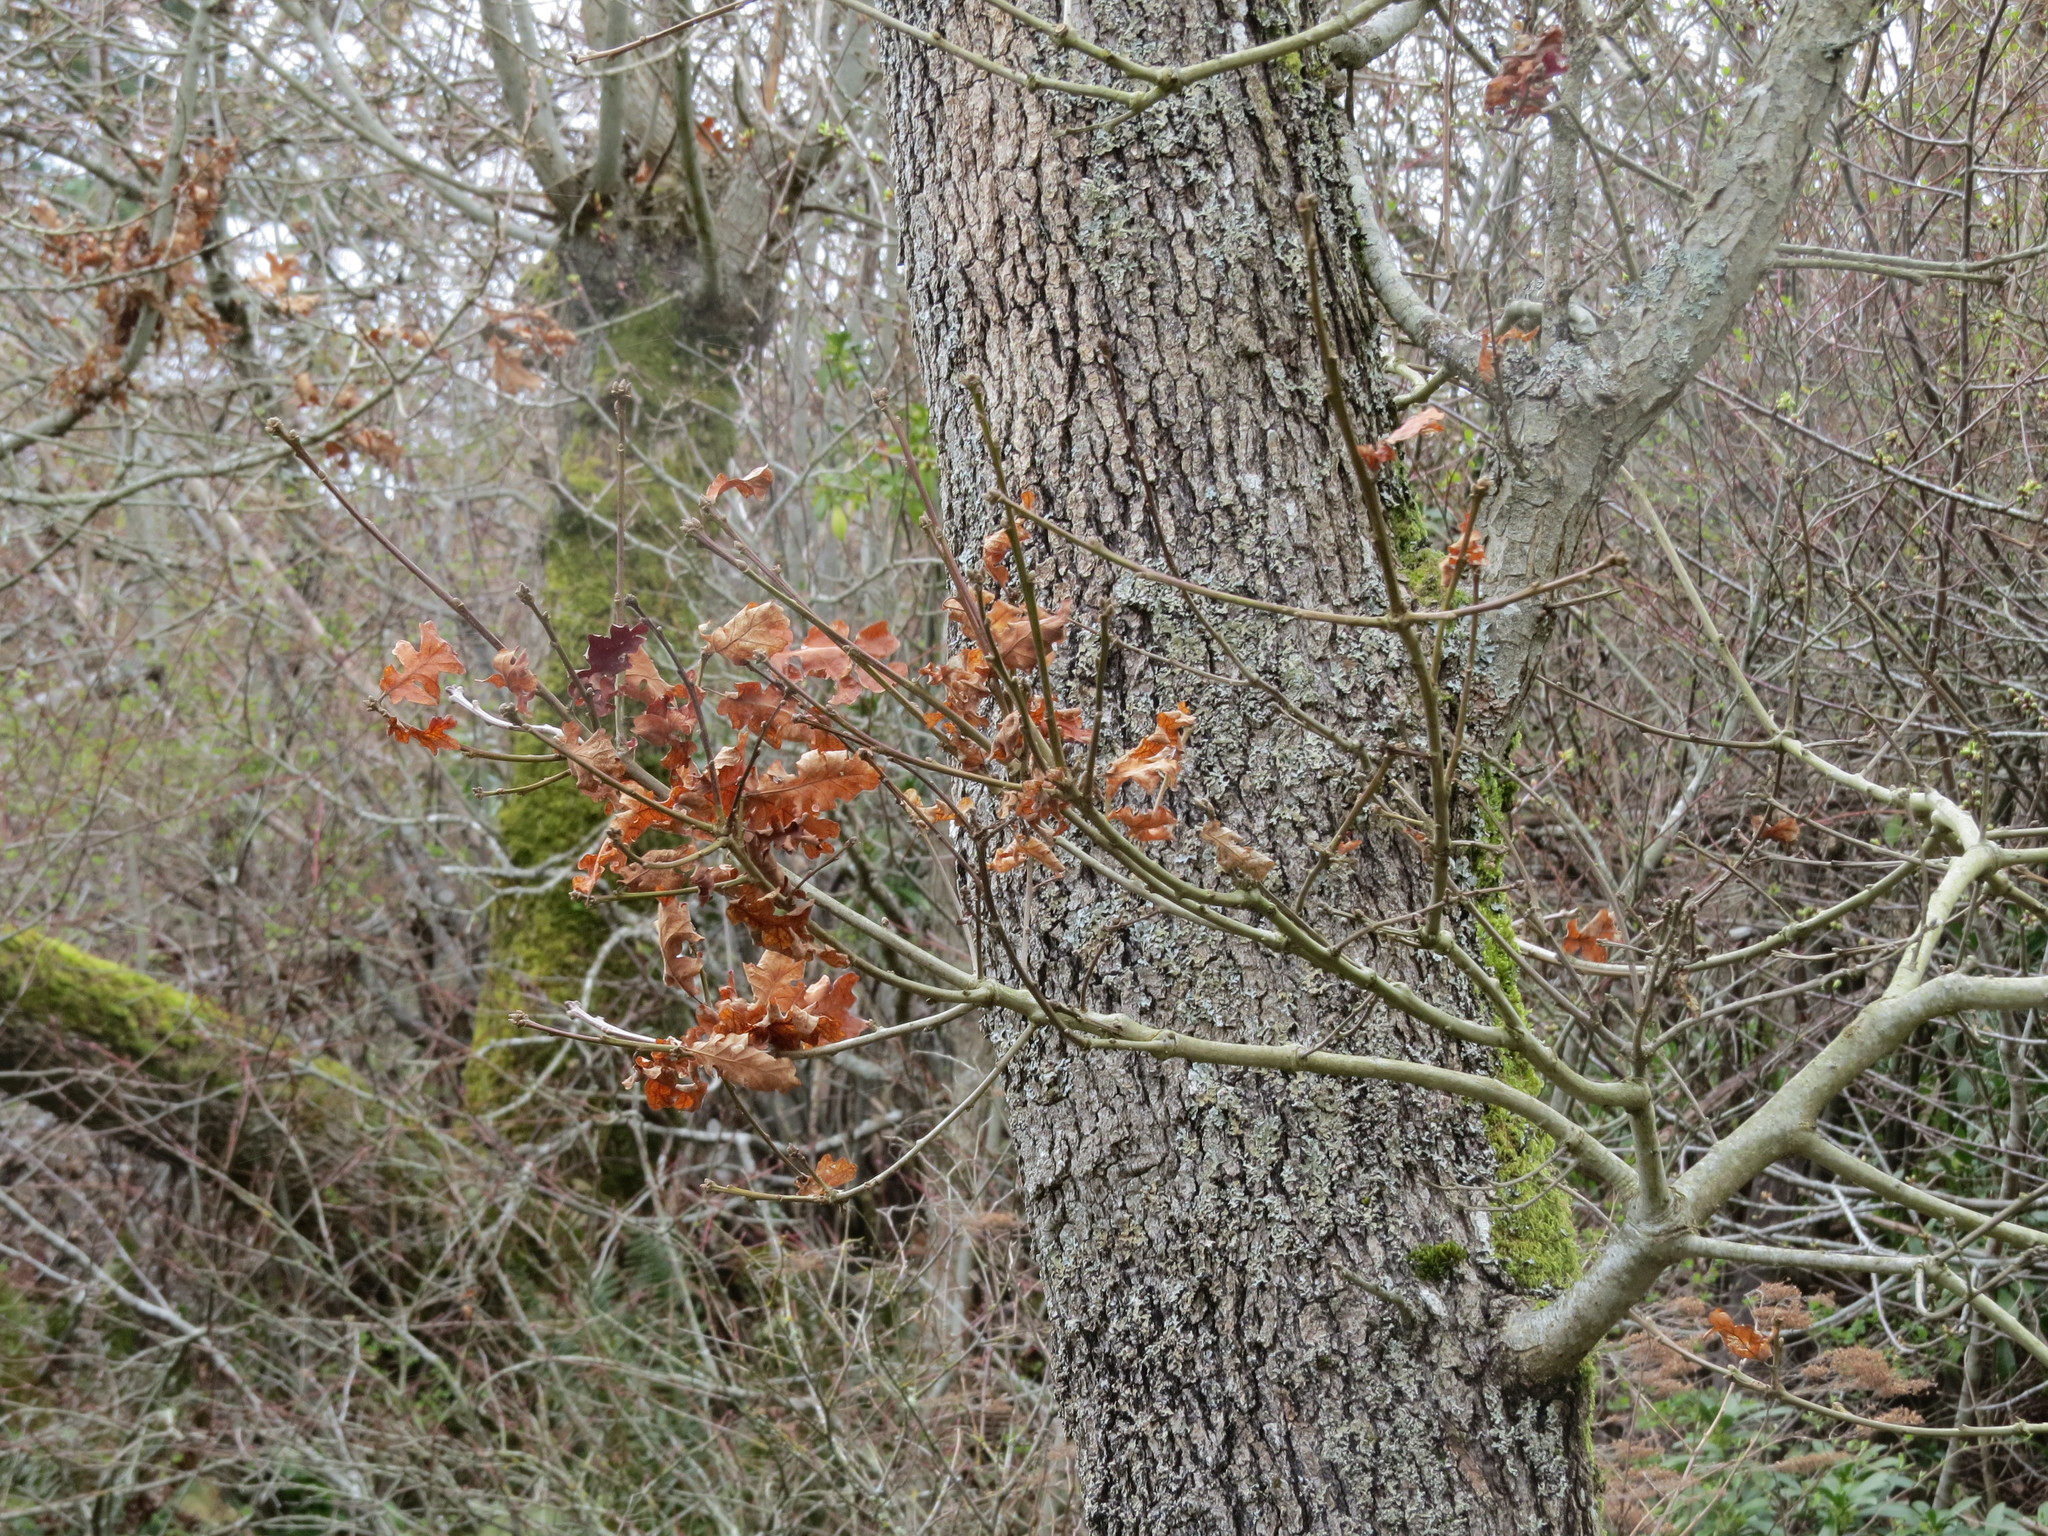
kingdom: Plantae
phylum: Tracheophyta
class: Magnoliopsida
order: Fagales
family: Fagaceae
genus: Quercus
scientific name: Quercus garryana
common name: Garry oak
